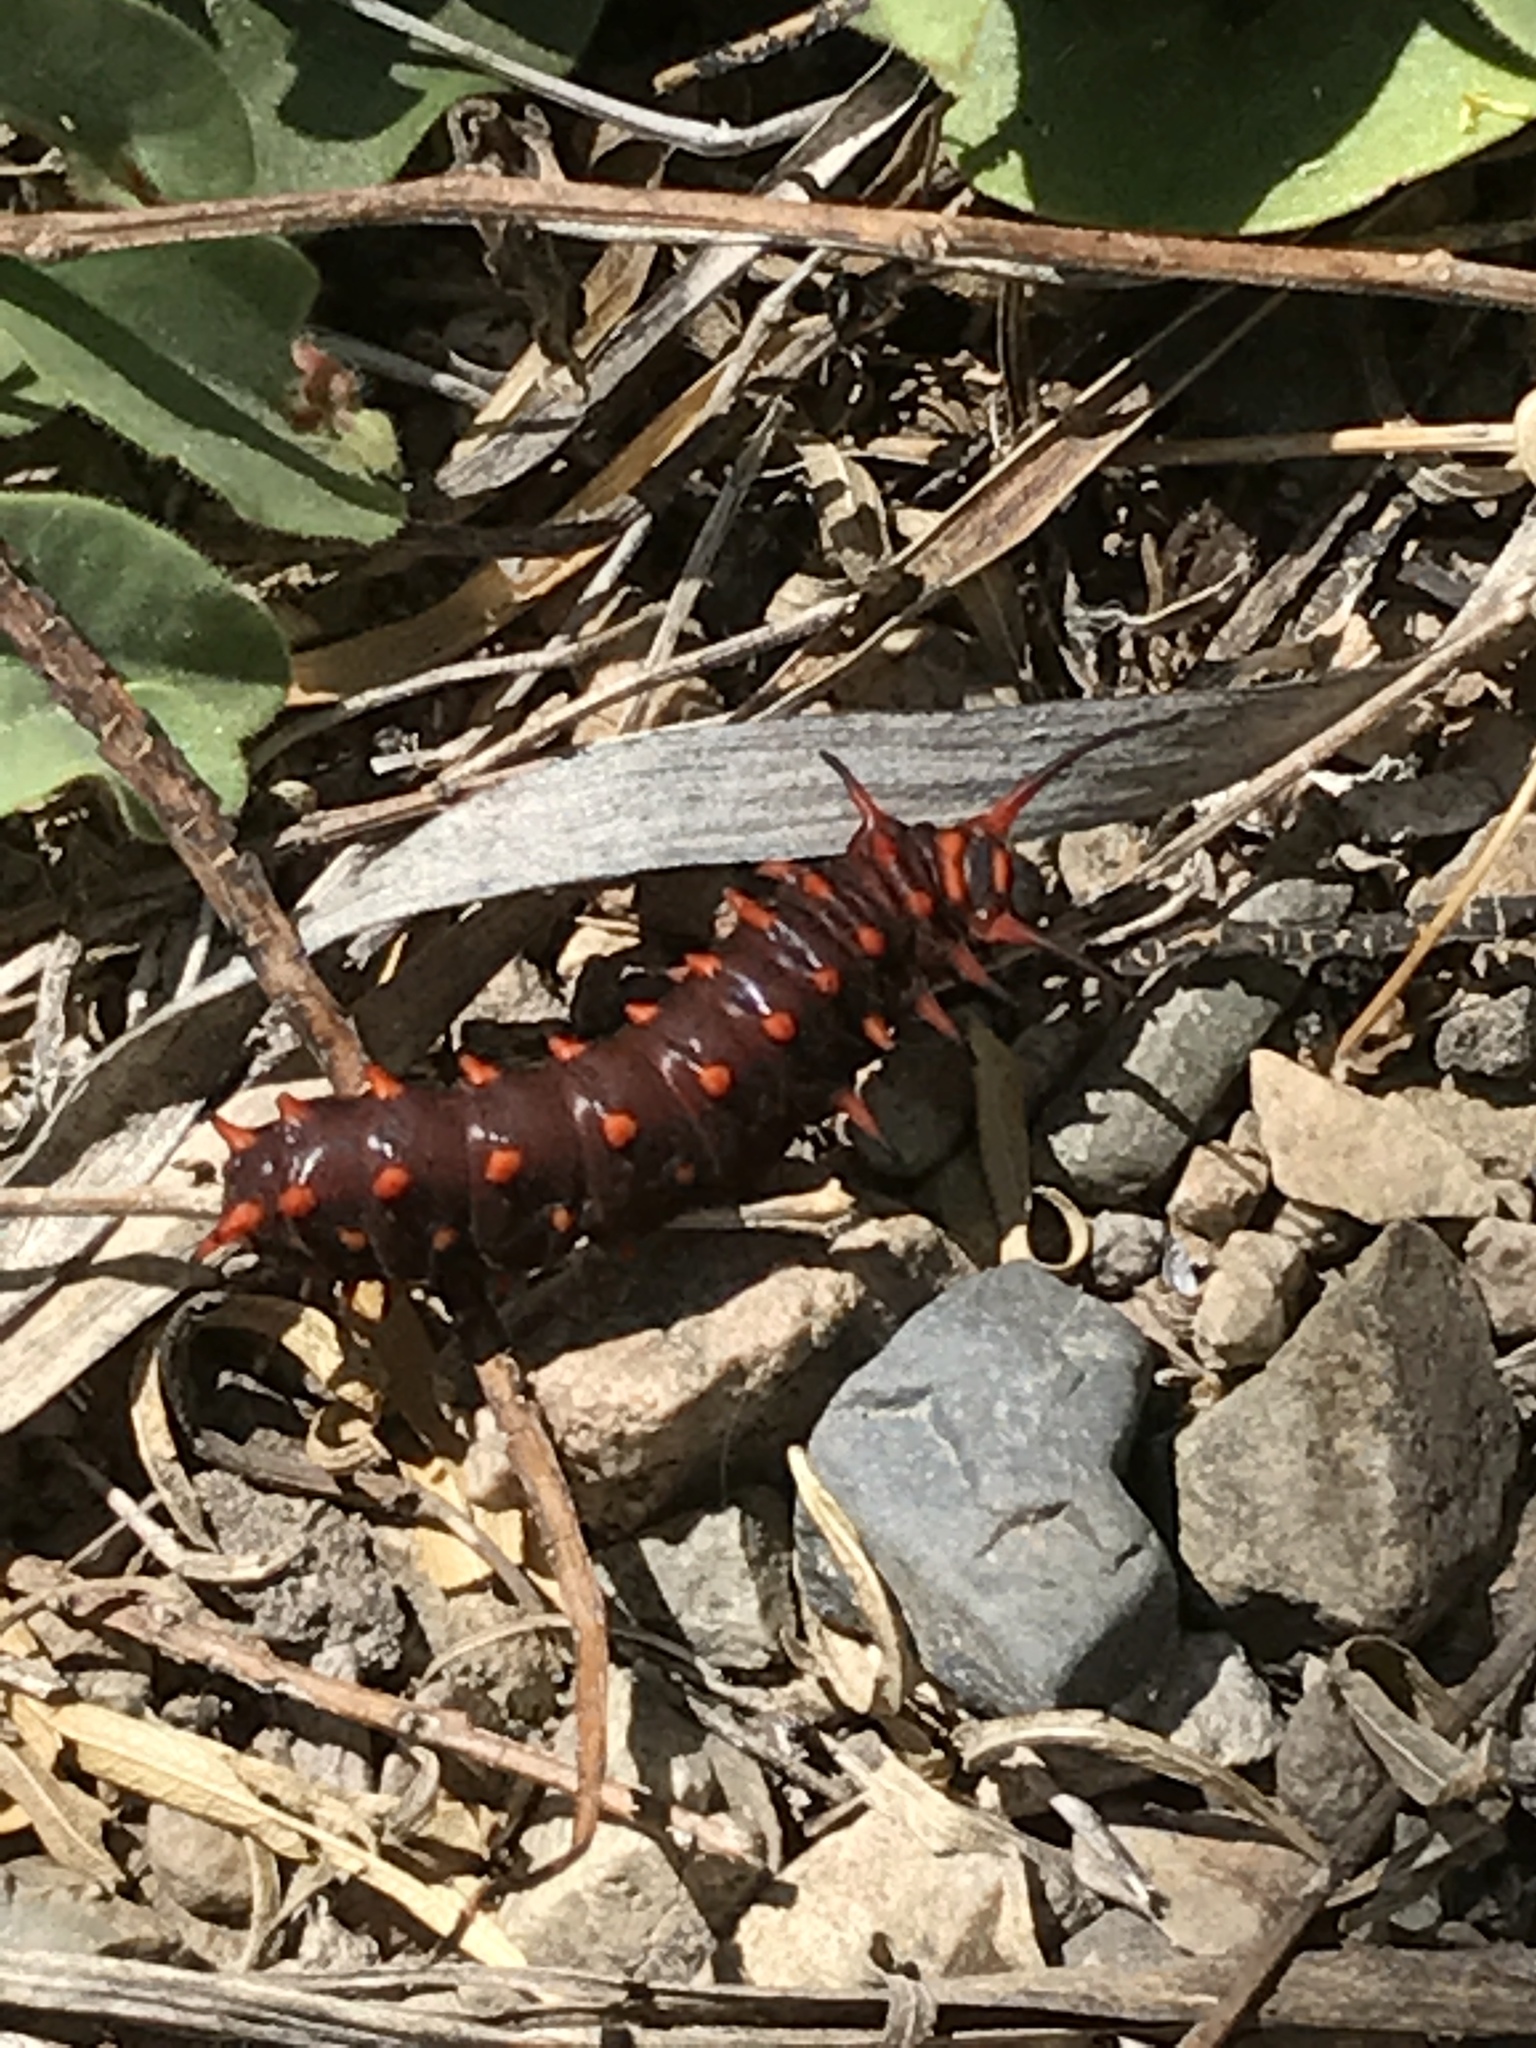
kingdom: Animalia
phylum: Arthropoda
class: Insecta
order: Lepidoptera
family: Papilionidae
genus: Battus
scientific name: Battus philenor
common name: Pipevine swallowtail
